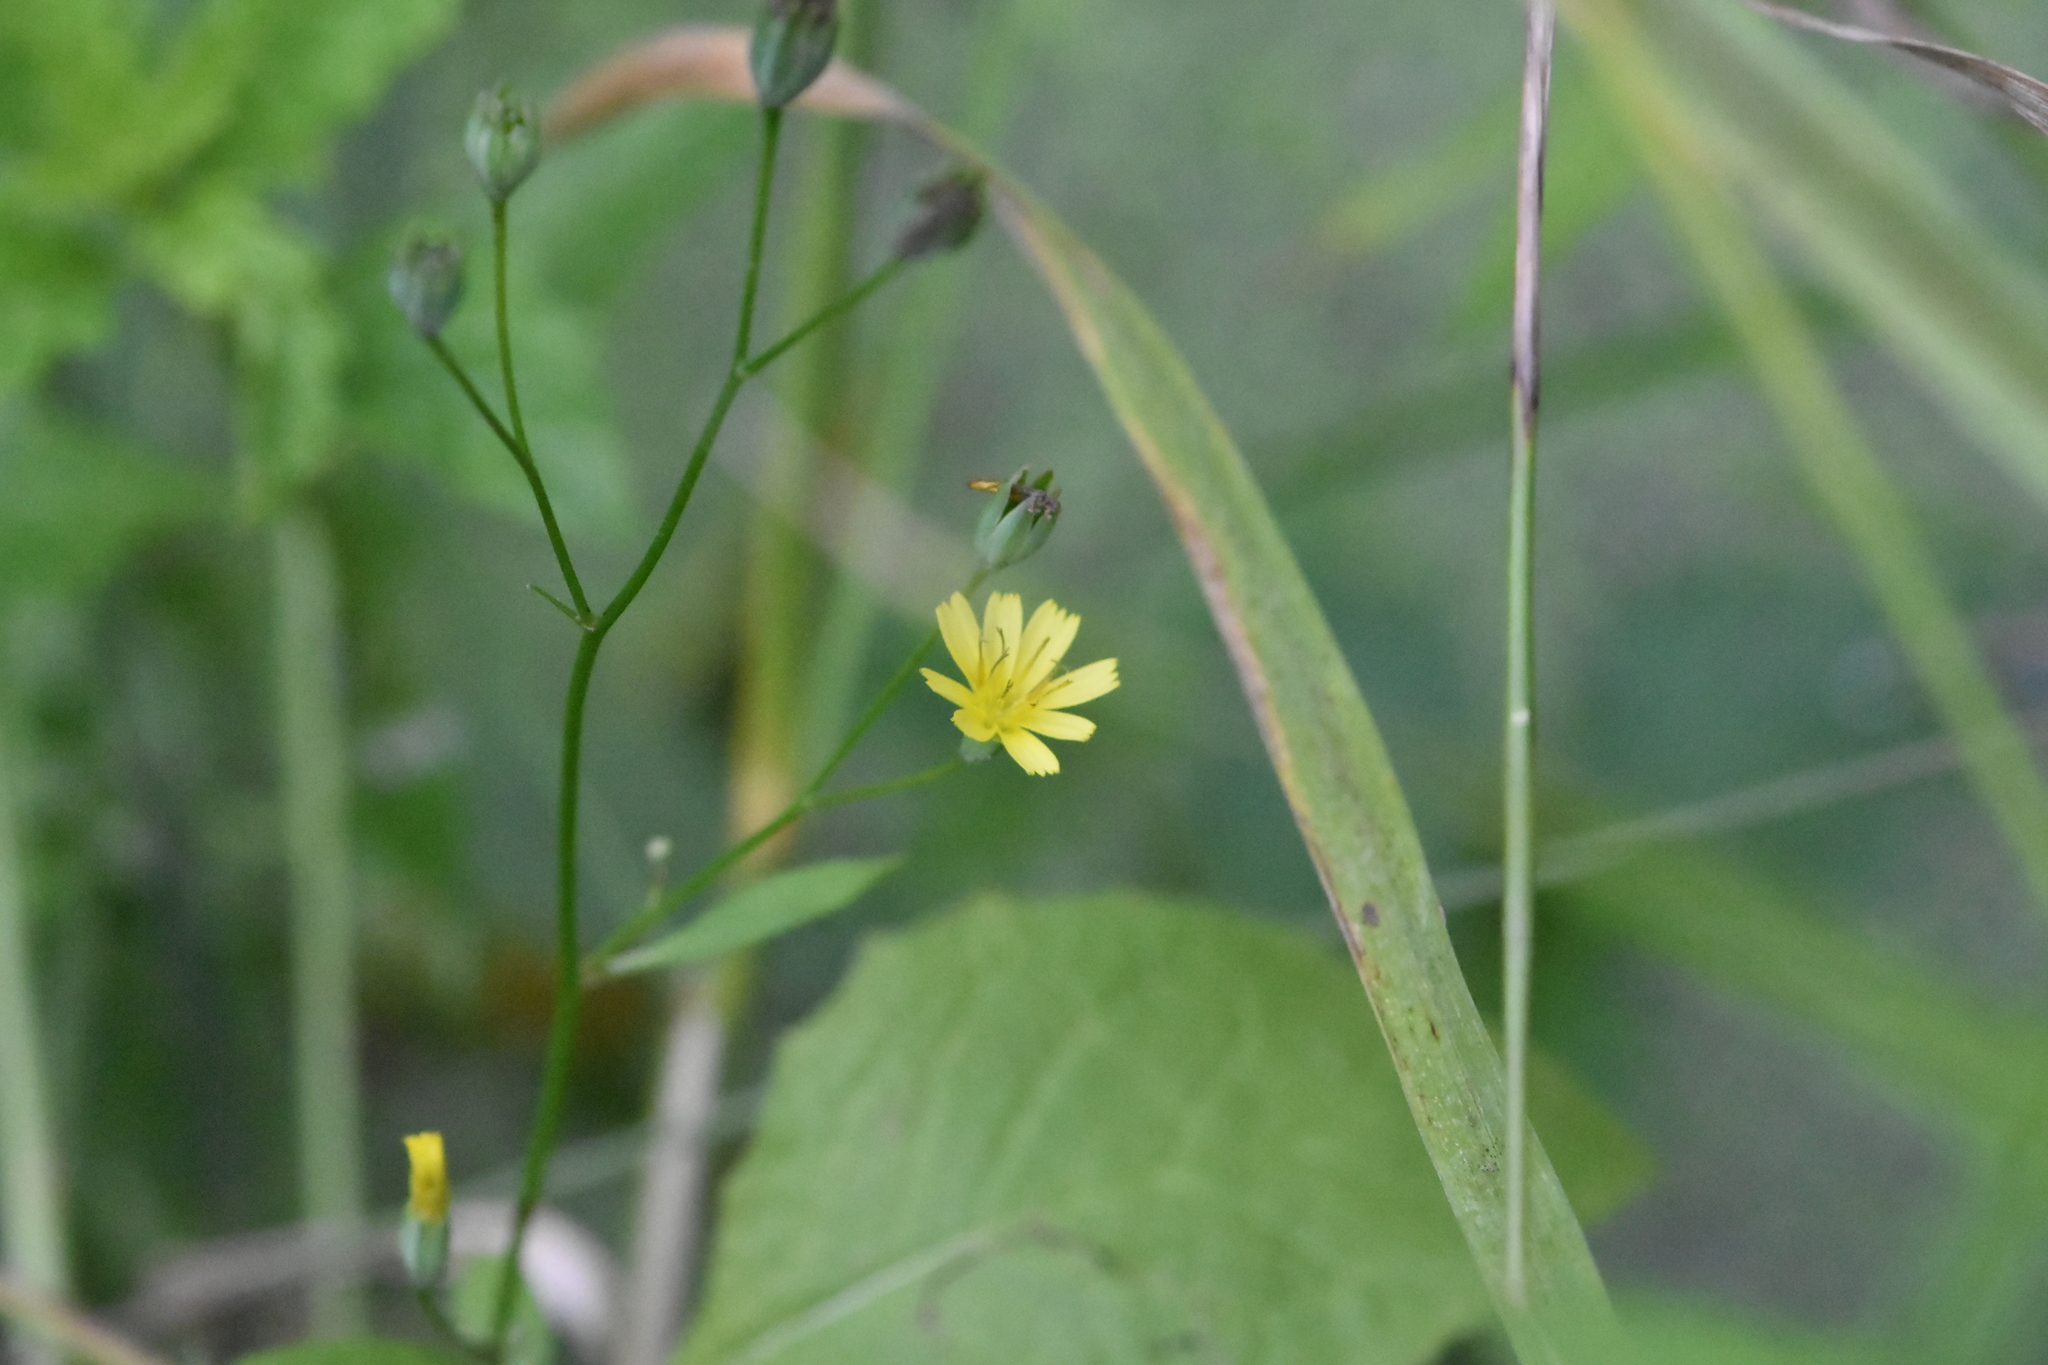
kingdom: Plantae
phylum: Tracheophyta
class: Magnoliopsida
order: Asterales
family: Asteraceae
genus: Lapsana
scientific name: Lapsana communis
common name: Nipplewort
